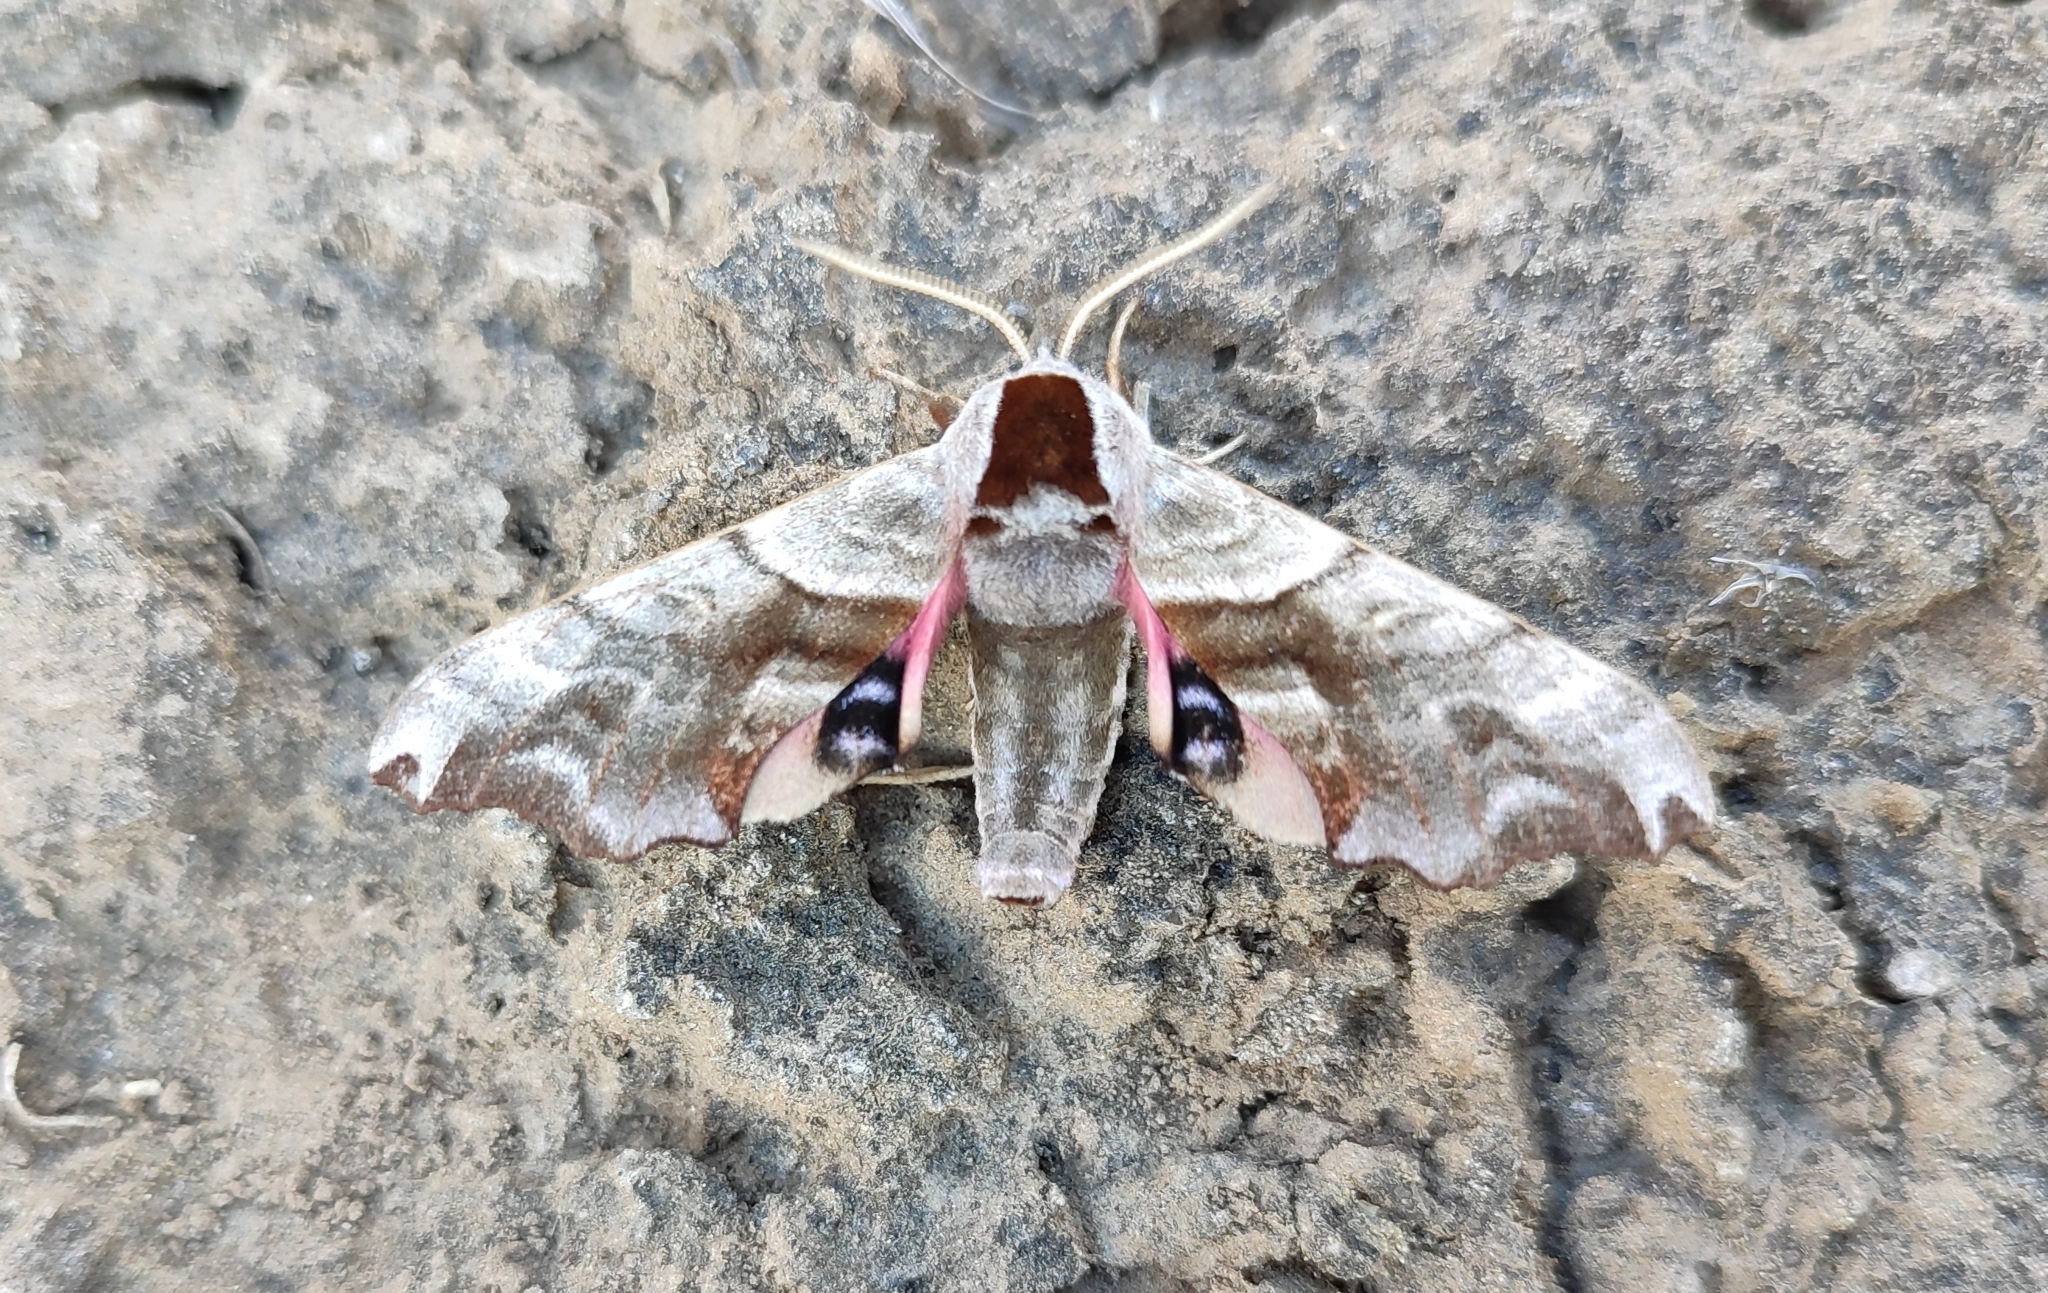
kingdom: Animalia
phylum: Arthropoda
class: Insecta
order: Lepidoptera
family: Sphingidae
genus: Smerinthus
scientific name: Smerinthus caecus
